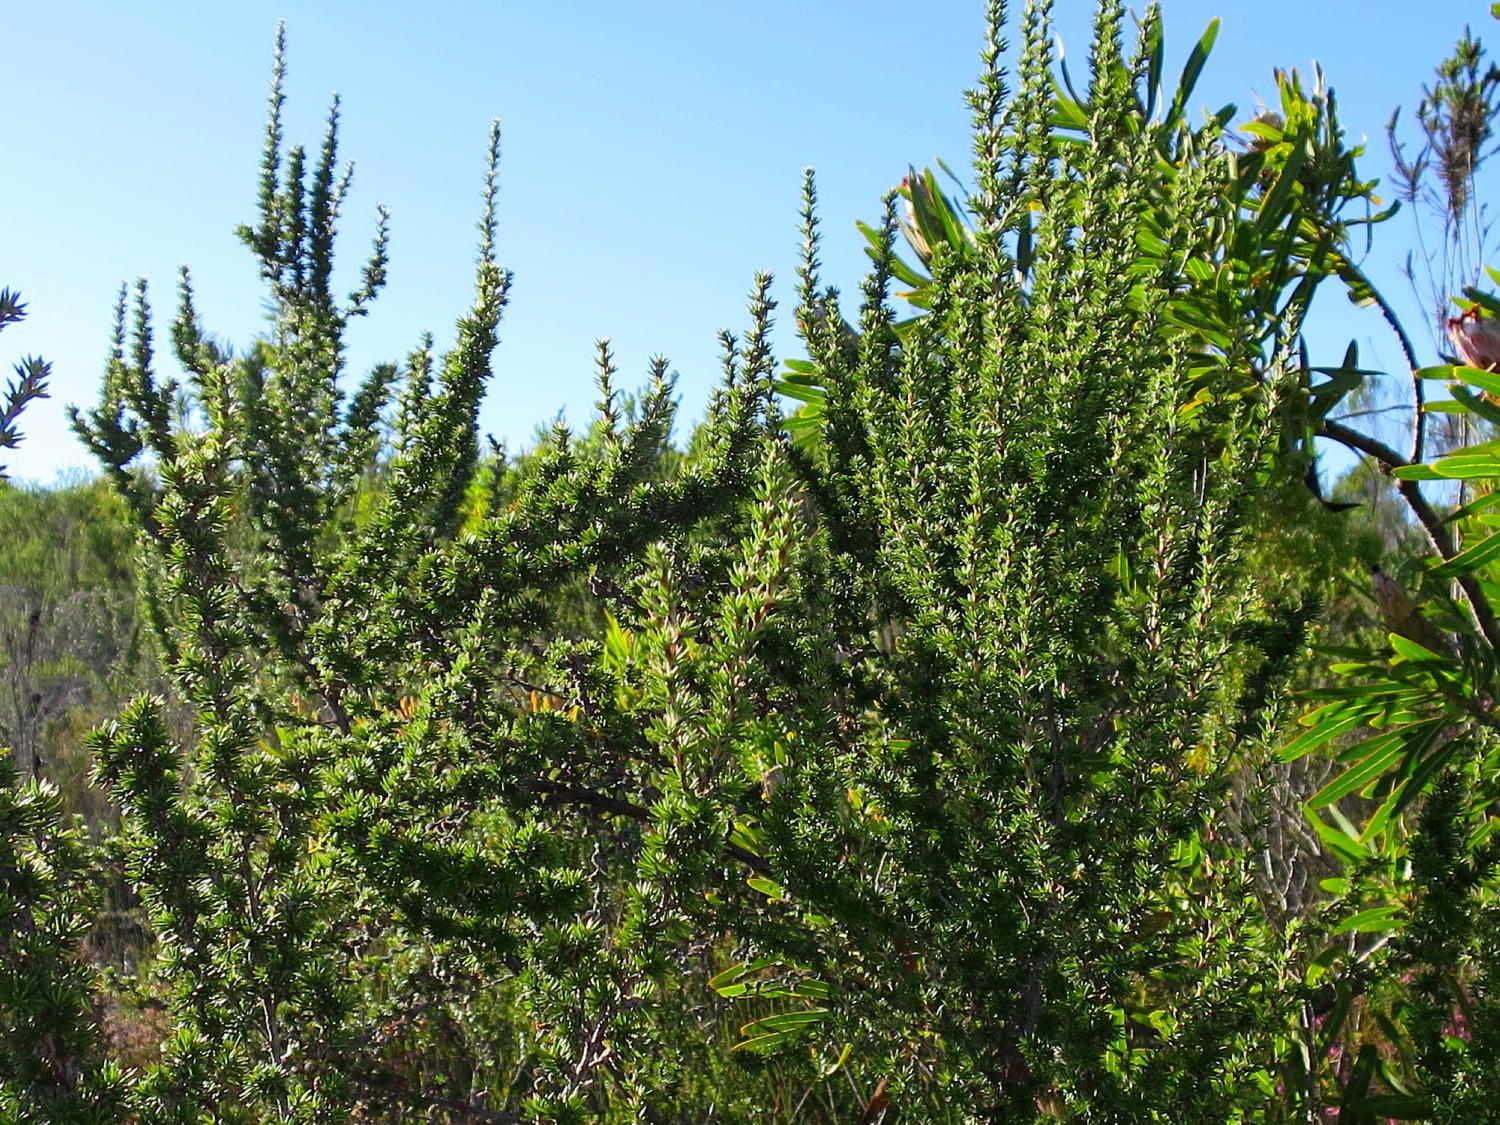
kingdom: Plantae
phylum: Tracheophyta
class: Magnoliopsida
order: Rosales
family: Rosaceae
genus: Cliffortia
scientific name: Cliffortia stricta
